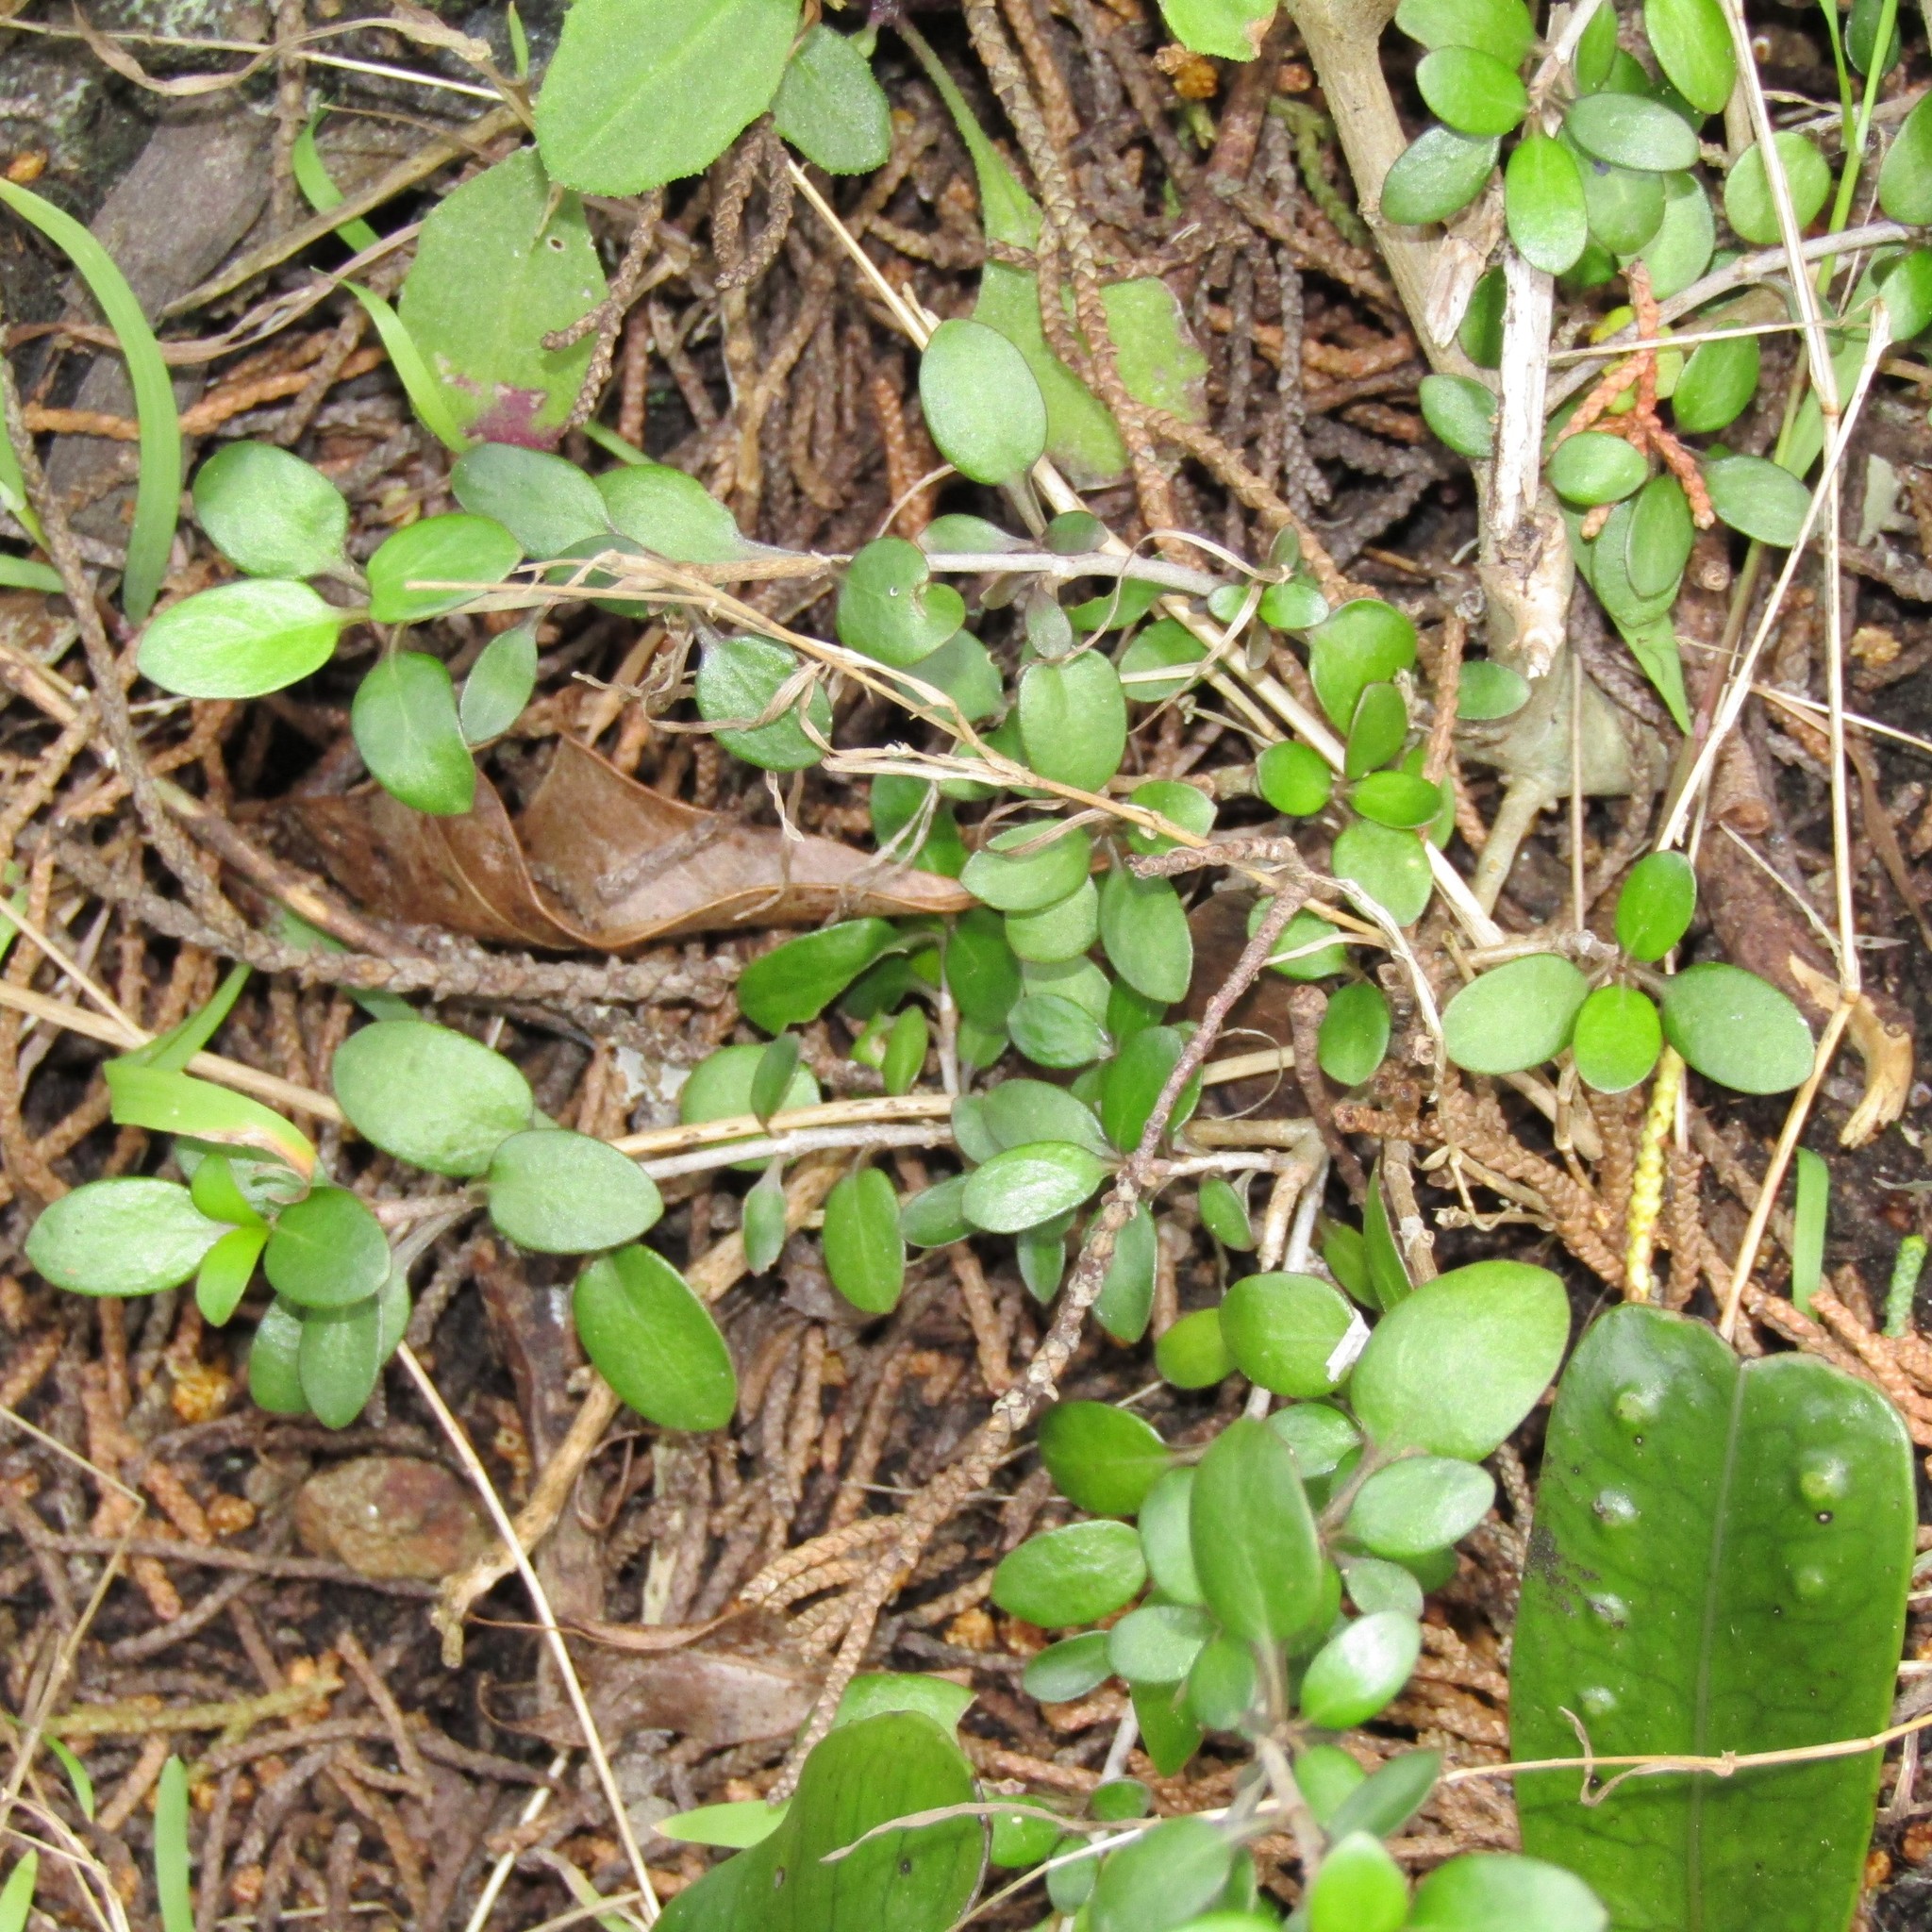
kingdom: Plantae
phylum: Tracheophyta
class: Magnoliopsida
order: Gentianales
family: Rubiaceae
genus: Coprosma
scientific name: Coprosma cunninghamii
